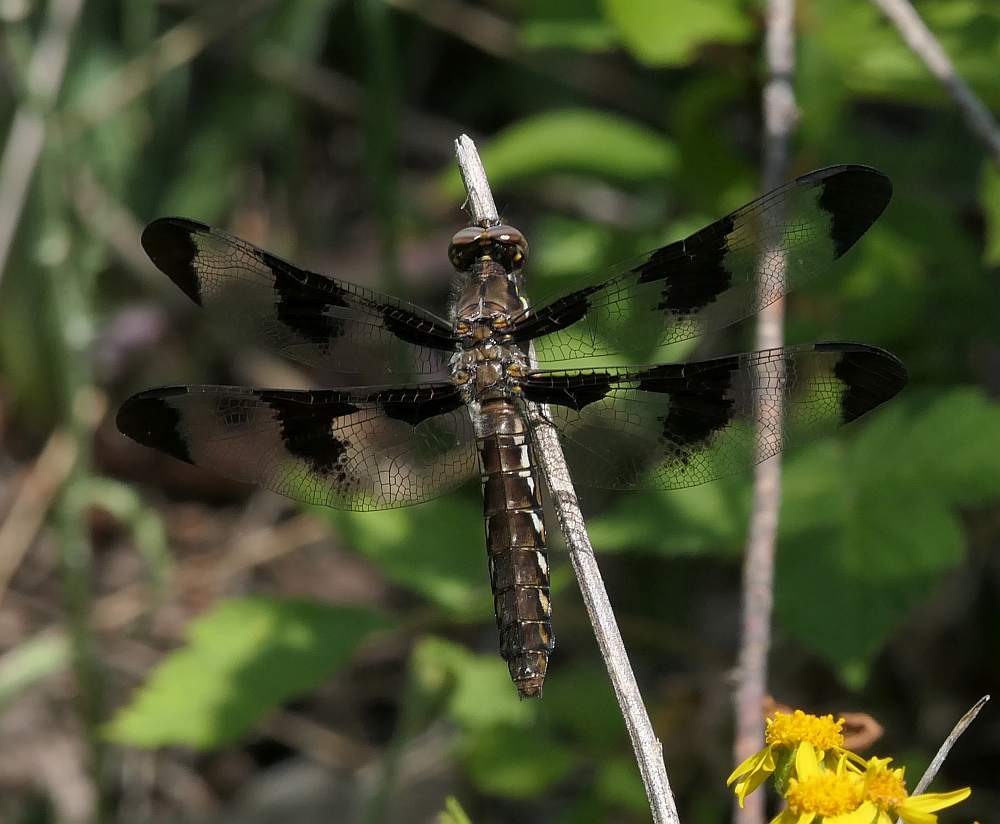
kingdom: Animalia
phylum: Arthropoda
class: Insecta
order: Odonata
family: Libellulidae
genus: Plathemis
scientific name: Plathemis lydia
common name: Common whitetail
